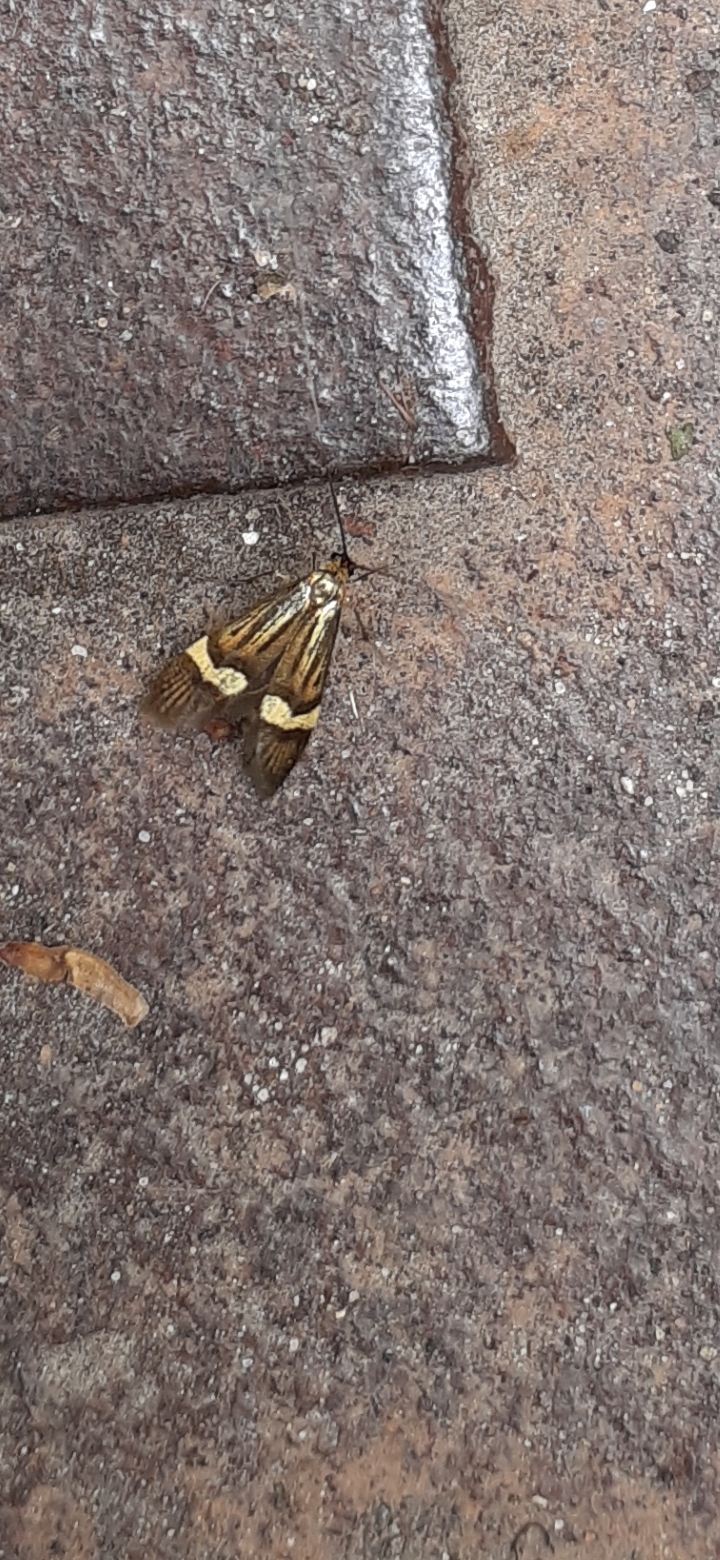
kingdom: Animalia
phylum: Arthropoda
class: Insecta
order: Lepidoptera
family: Adelidae
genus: Nemophora
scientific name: Nemophora degeerella
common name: Yellow-barred long-horn
